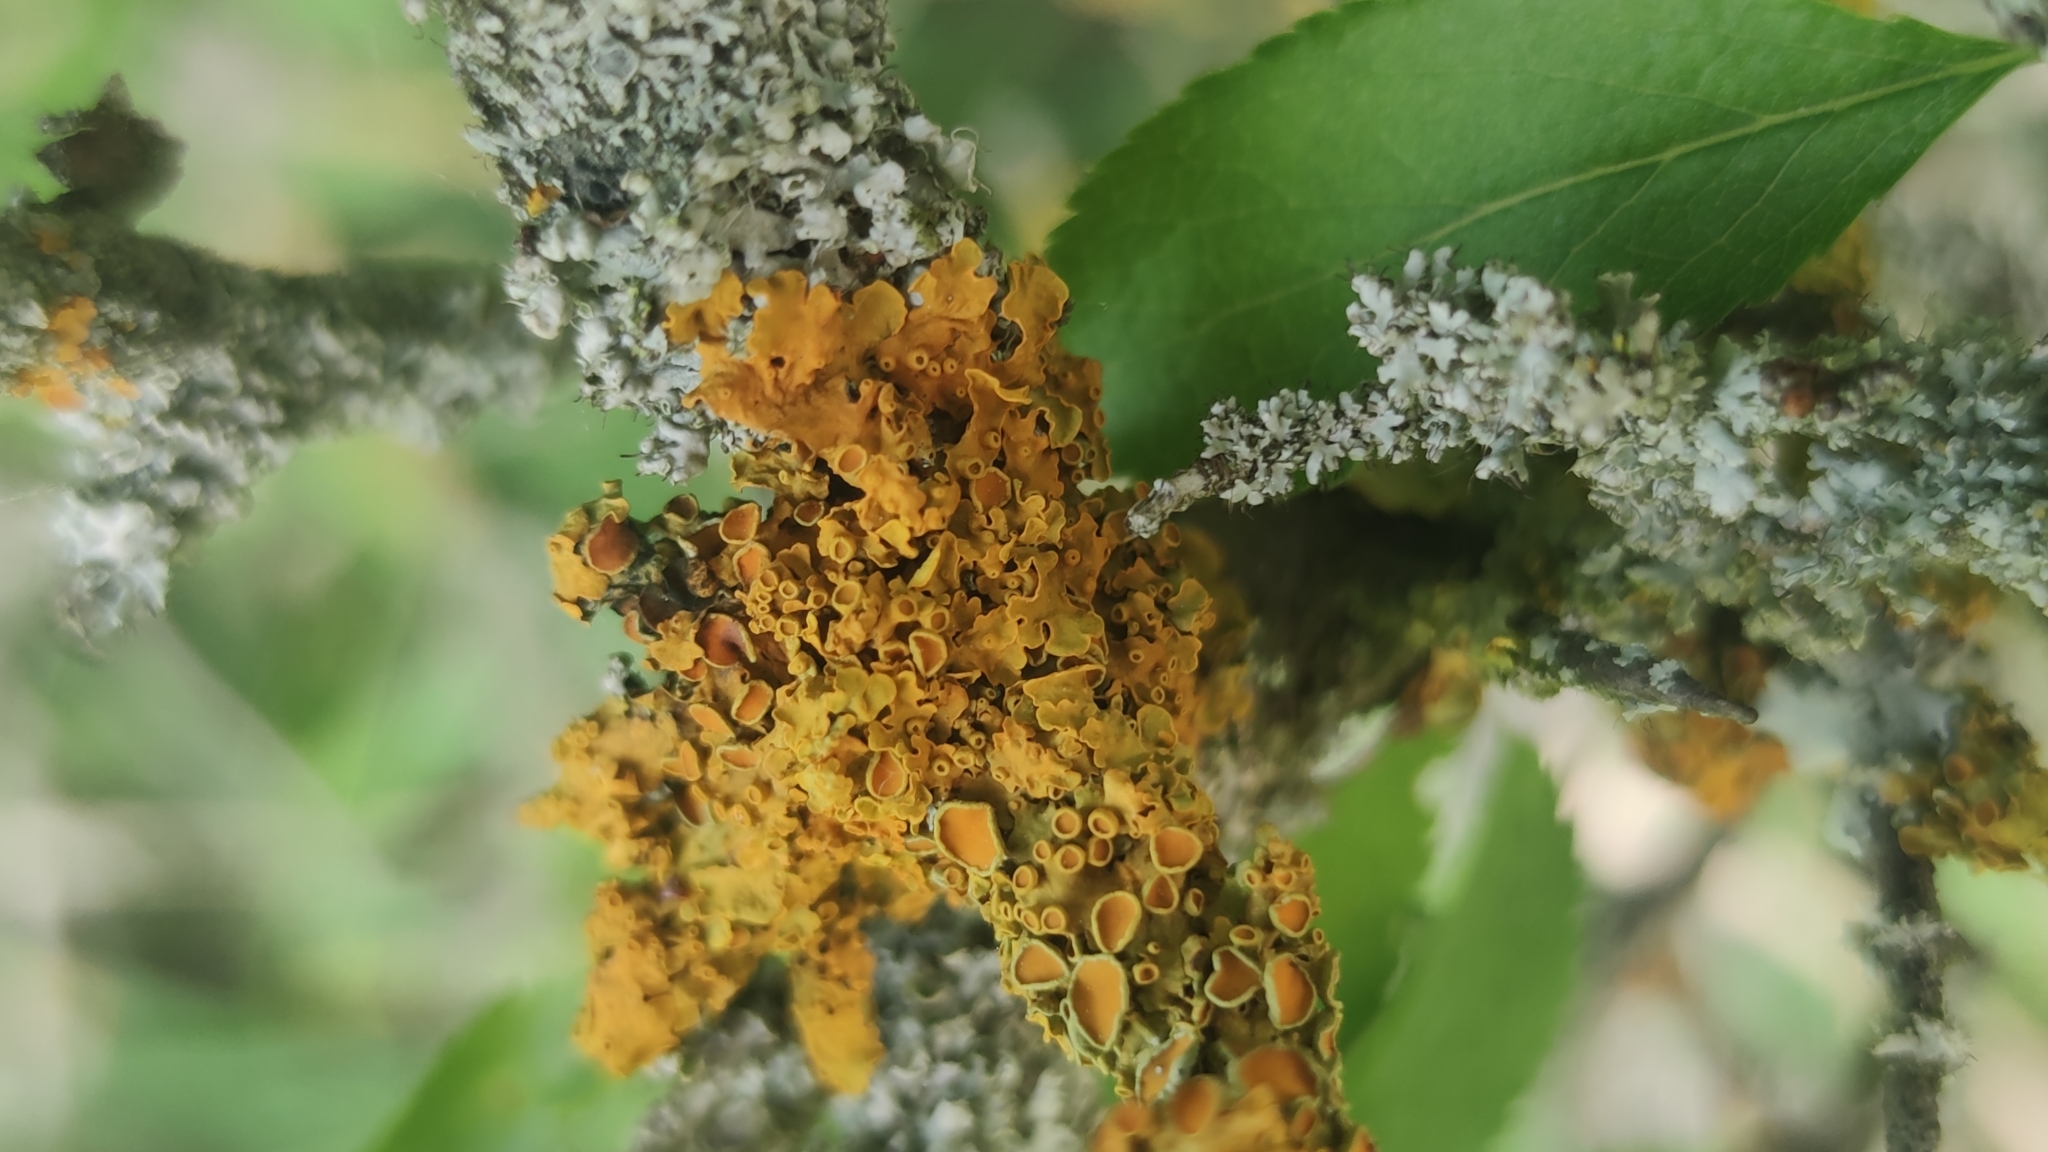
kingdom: Fungi
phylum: Ascomycota
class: Lecanoromycetes
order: Teloschistales
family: Teloschistaceae
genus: Xanthoria
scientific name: Xanthoria parietina
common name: Common orange lichen
